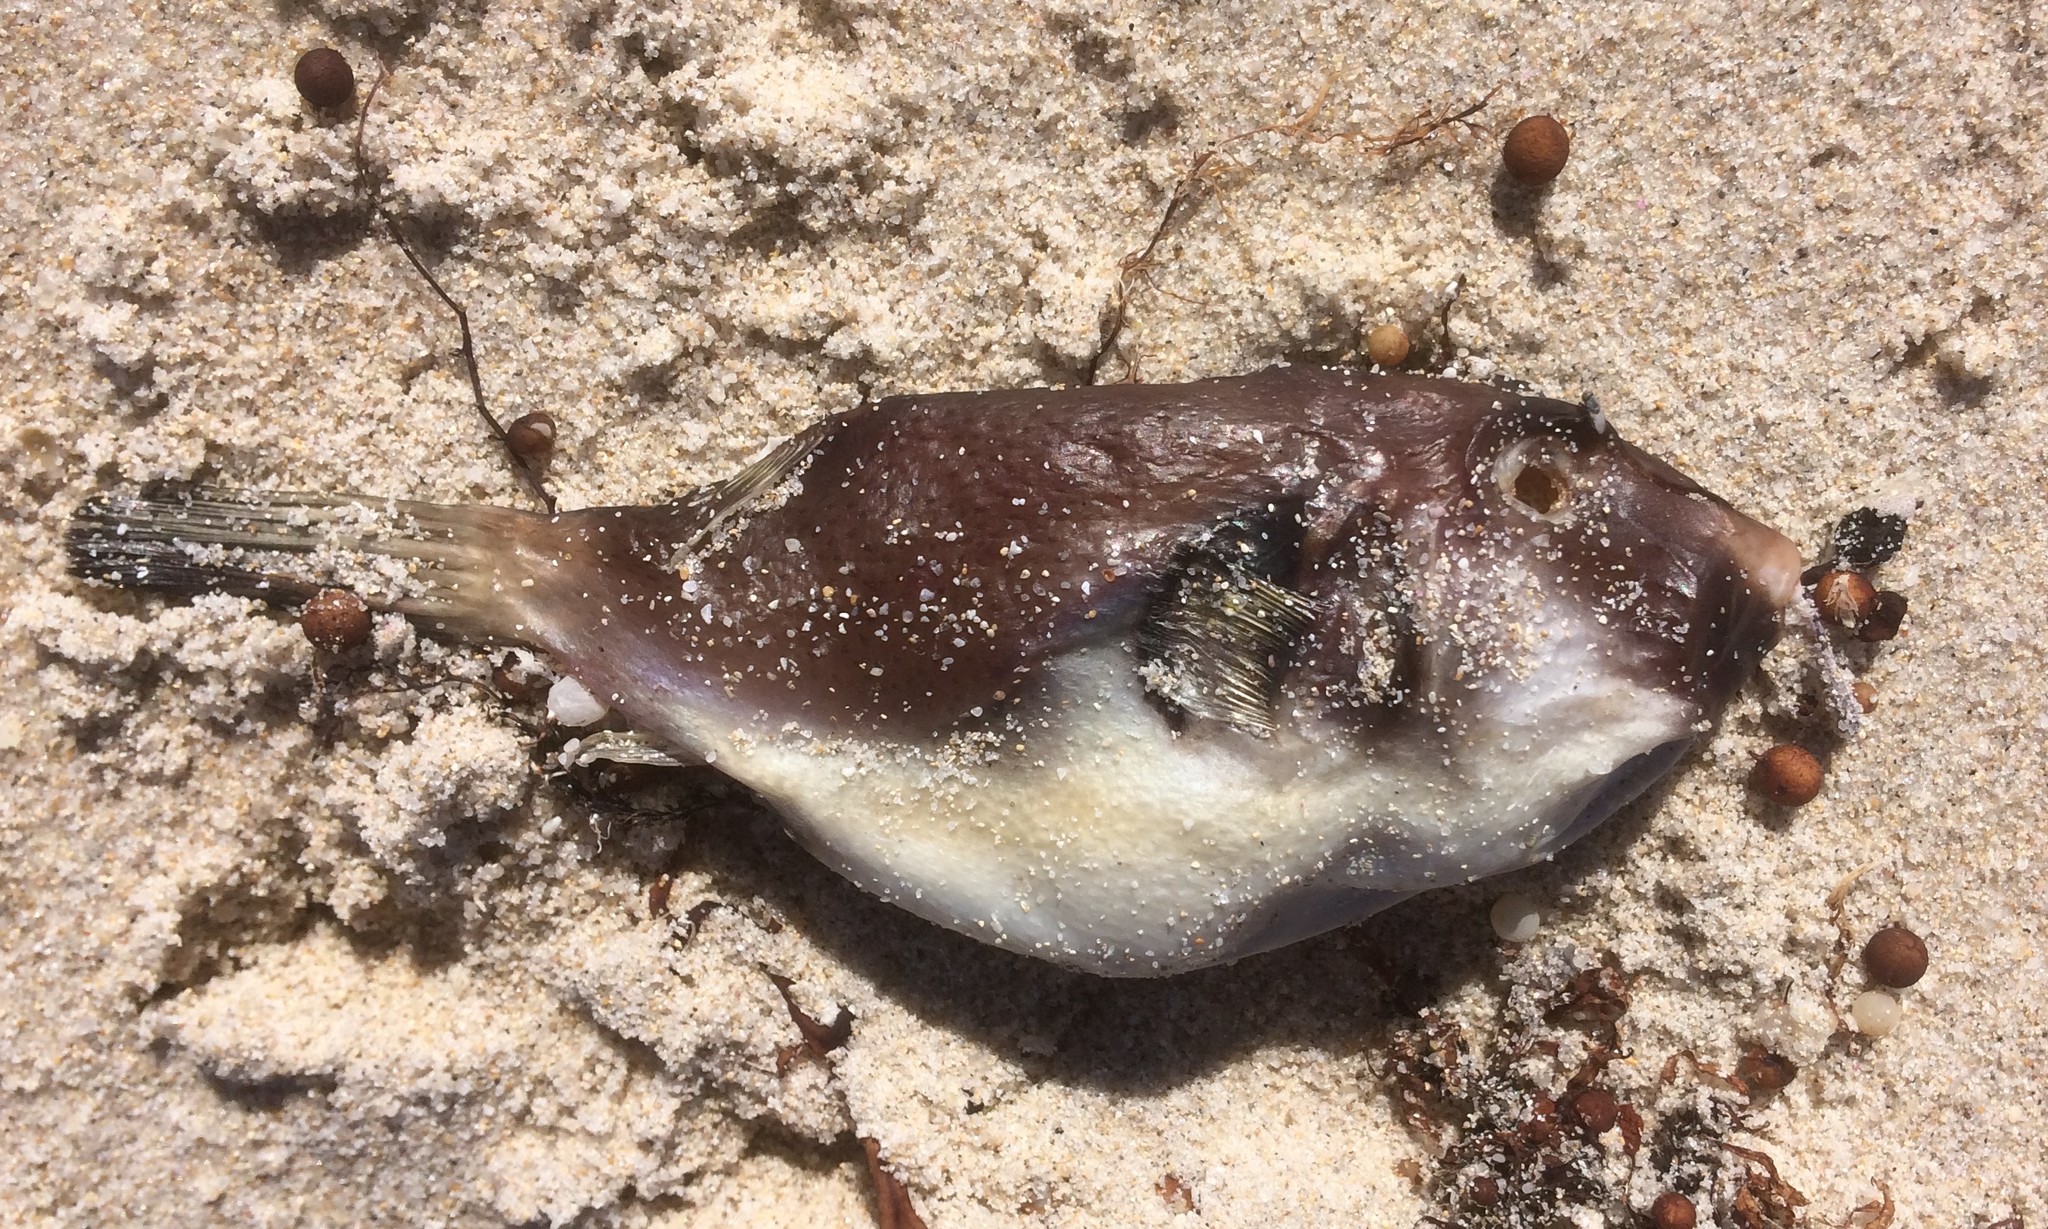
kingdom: Animalia
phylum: Chordata
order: Tetraodontiformes
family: Tetraodontidae
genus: Omegophora
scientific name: Omegophora armilla
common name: Ringed pufferfish
